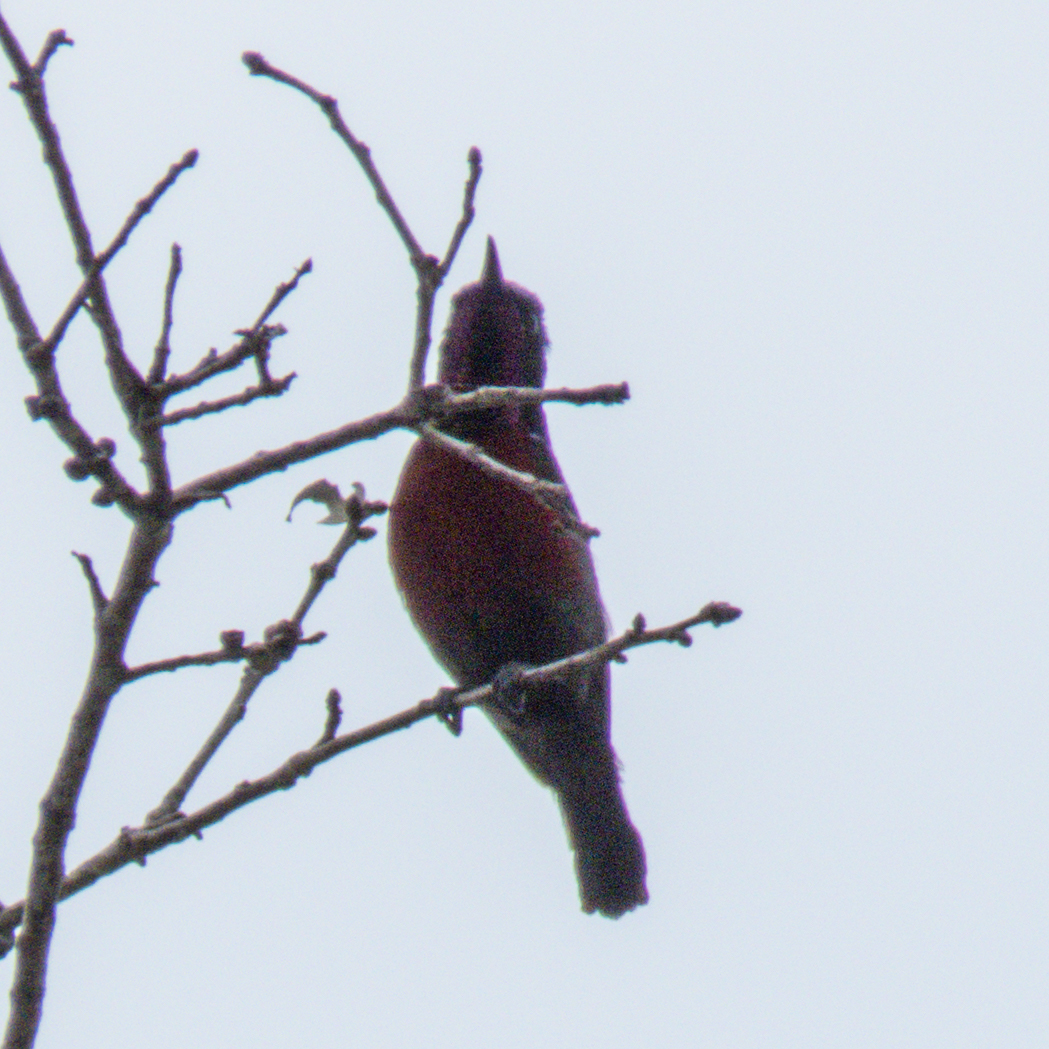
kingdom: Animalia
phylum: Chordata
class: Aves
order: Passeriformes
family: Nectariniidae
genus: Leptocoma
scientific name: Leptocoma brasiliana
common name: Van hasselt's sunbird
